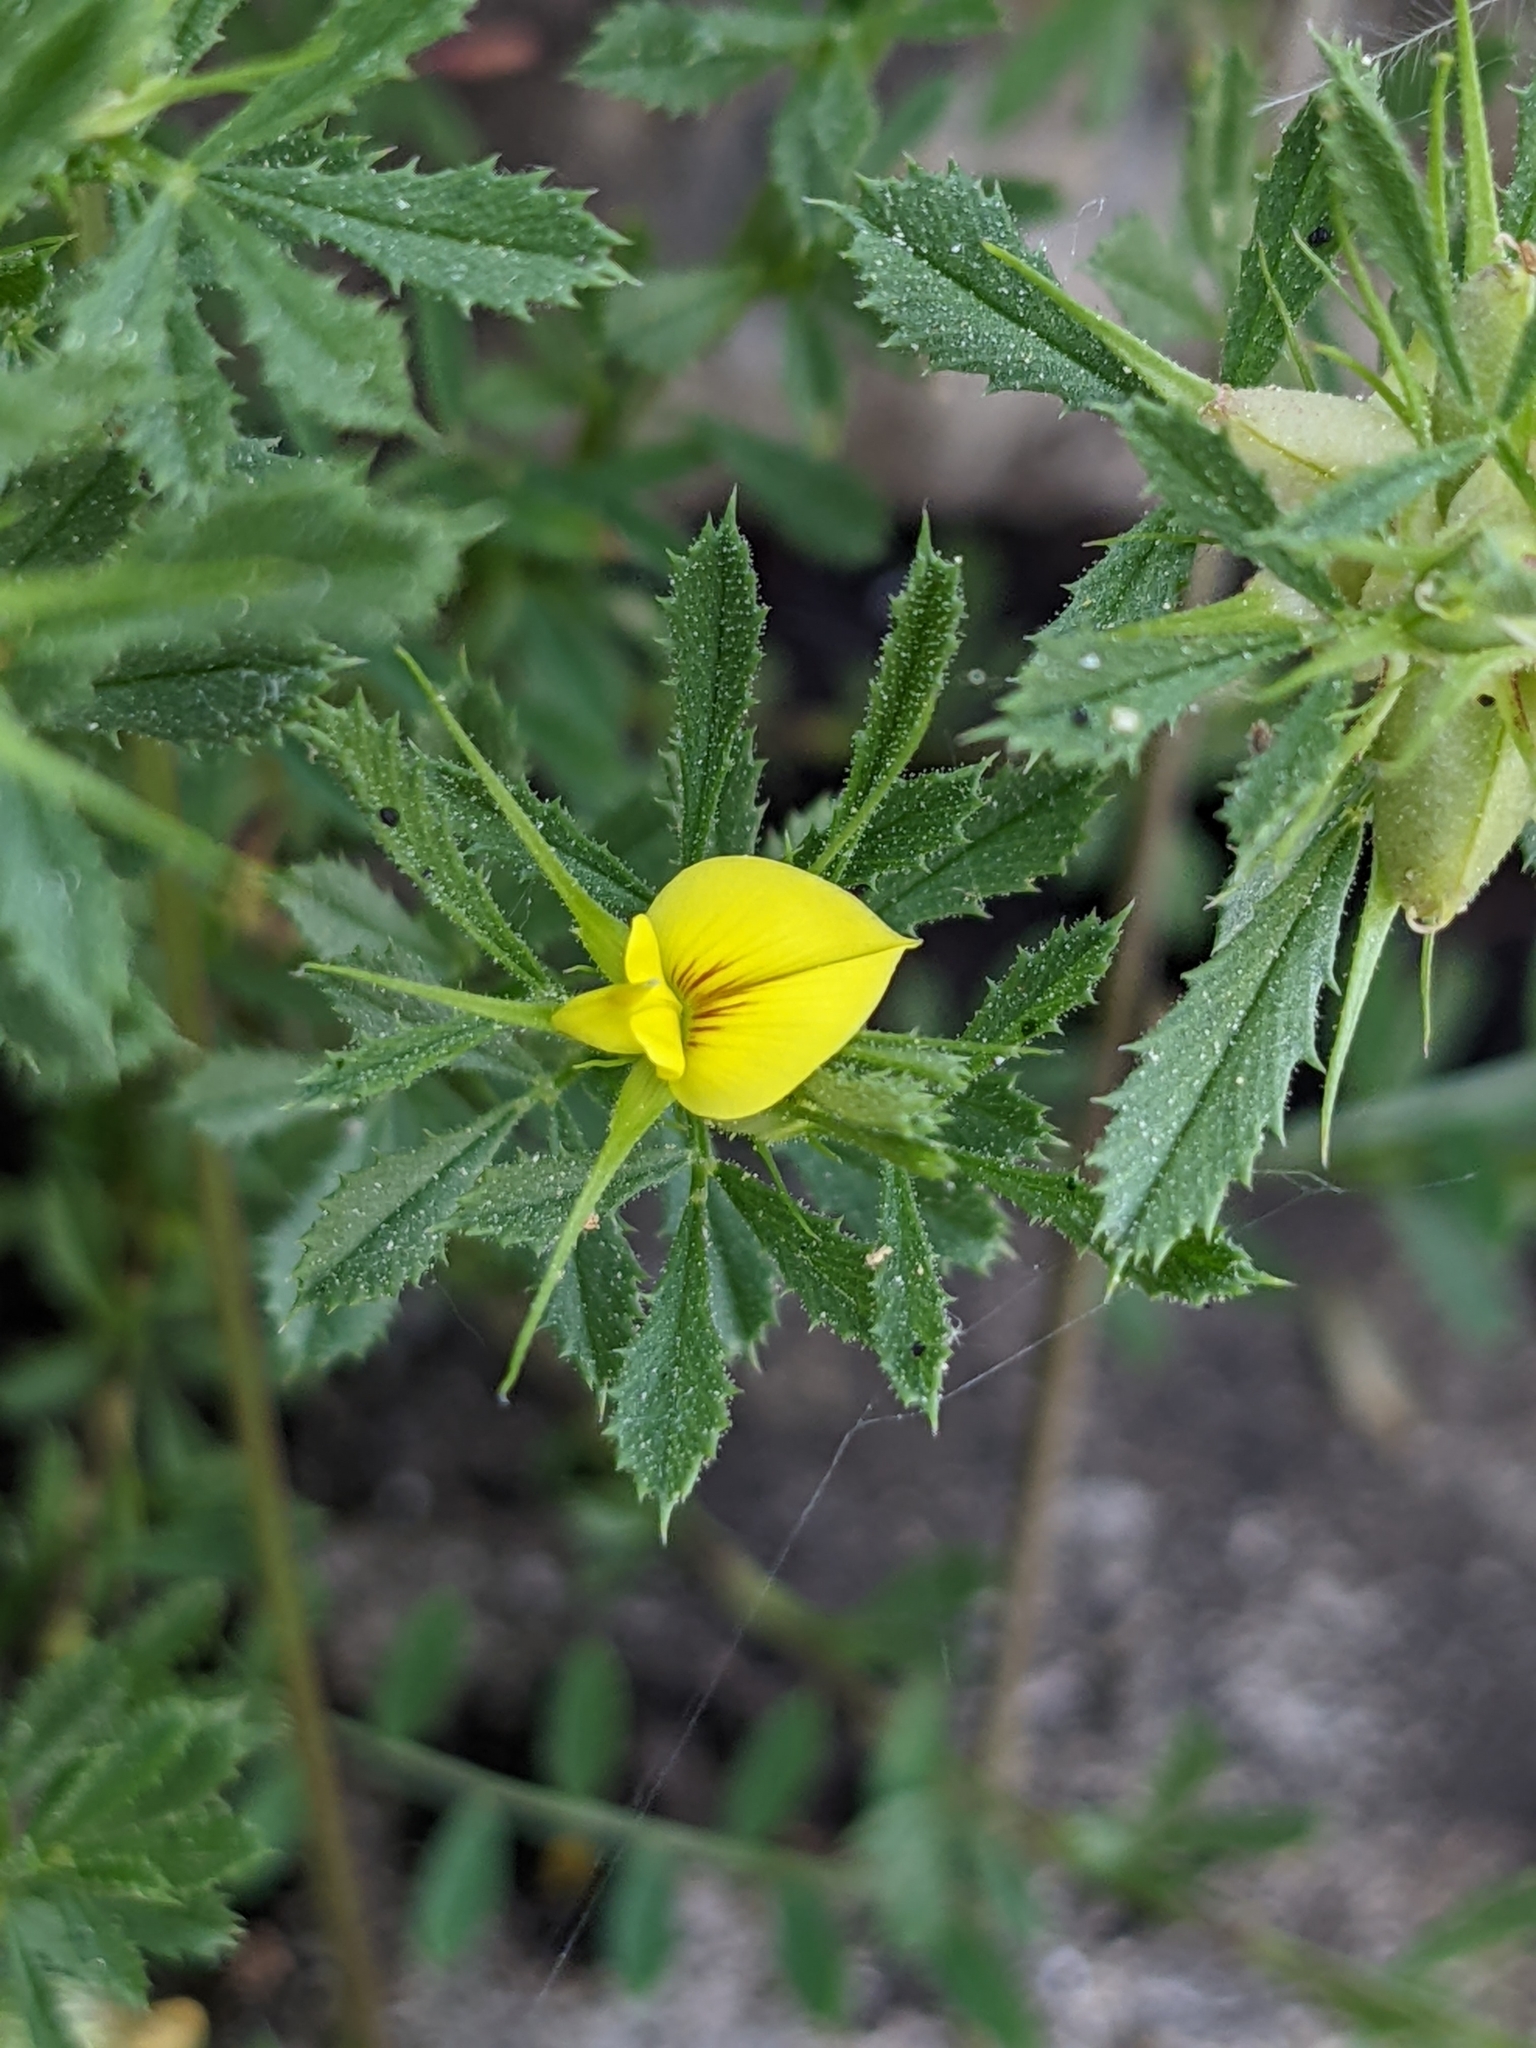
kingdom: Plantae
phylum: Tracheophyta
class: Magnoliopsida
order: Fabales
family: Fabaceae
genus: Ononis
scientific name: Ononis minutissima
